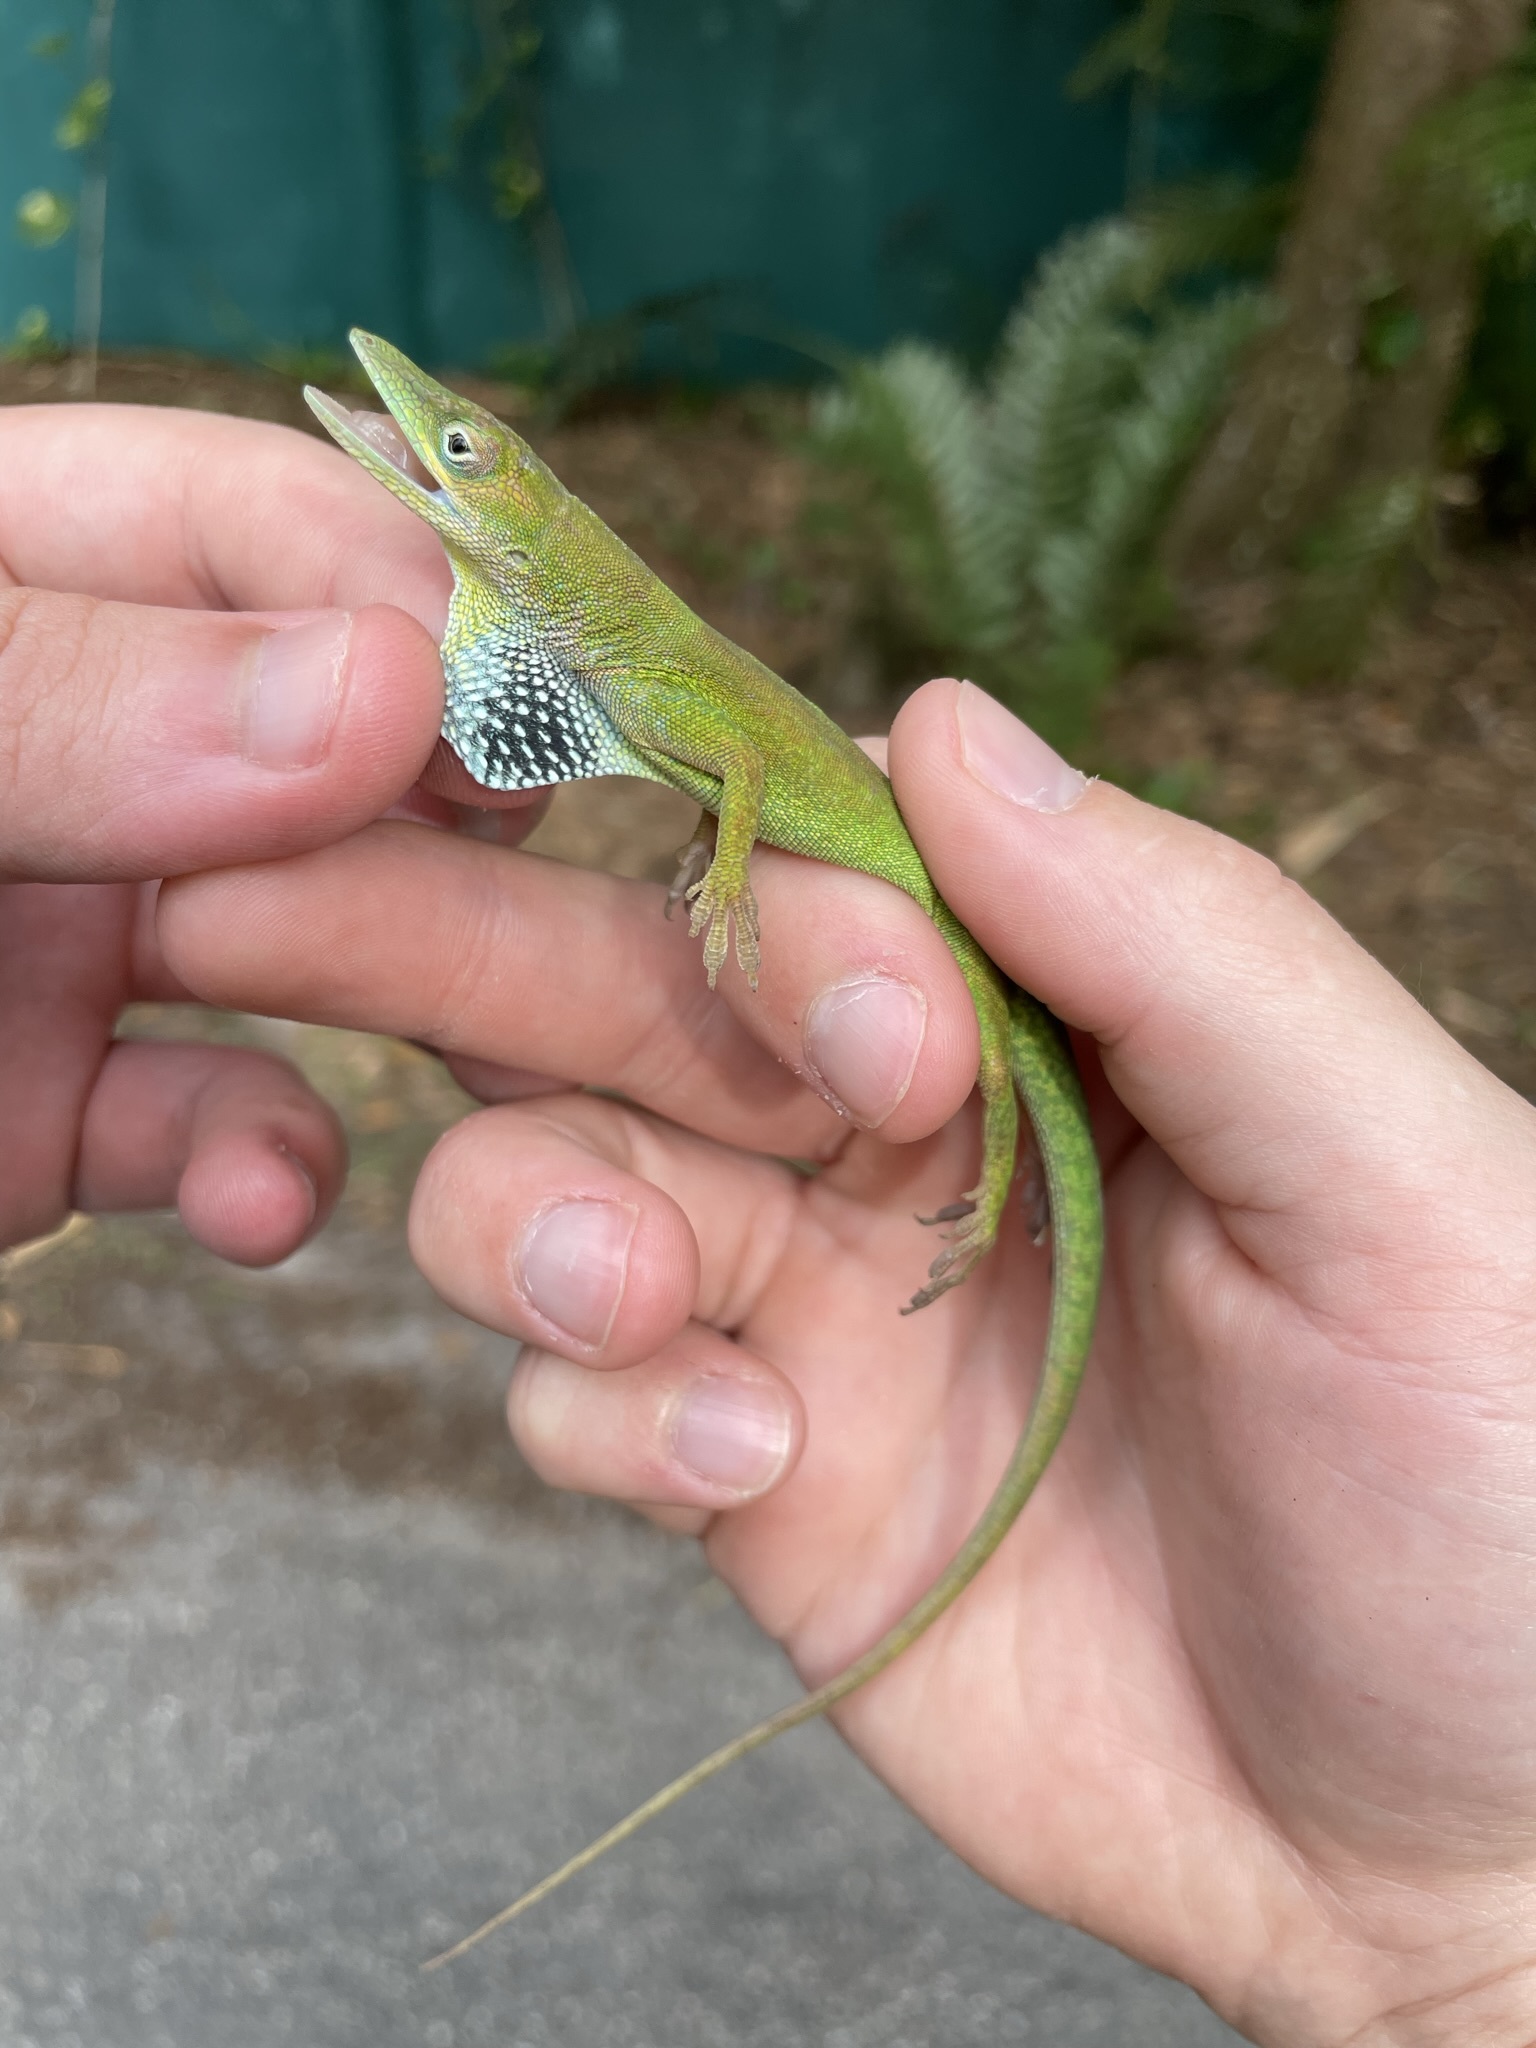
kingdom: Animalia
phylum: Chordata
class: Squamata
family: Dactyloidae
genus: Anolis
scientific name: Anolis chlorocyanus
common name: Hispaniolan green anole
